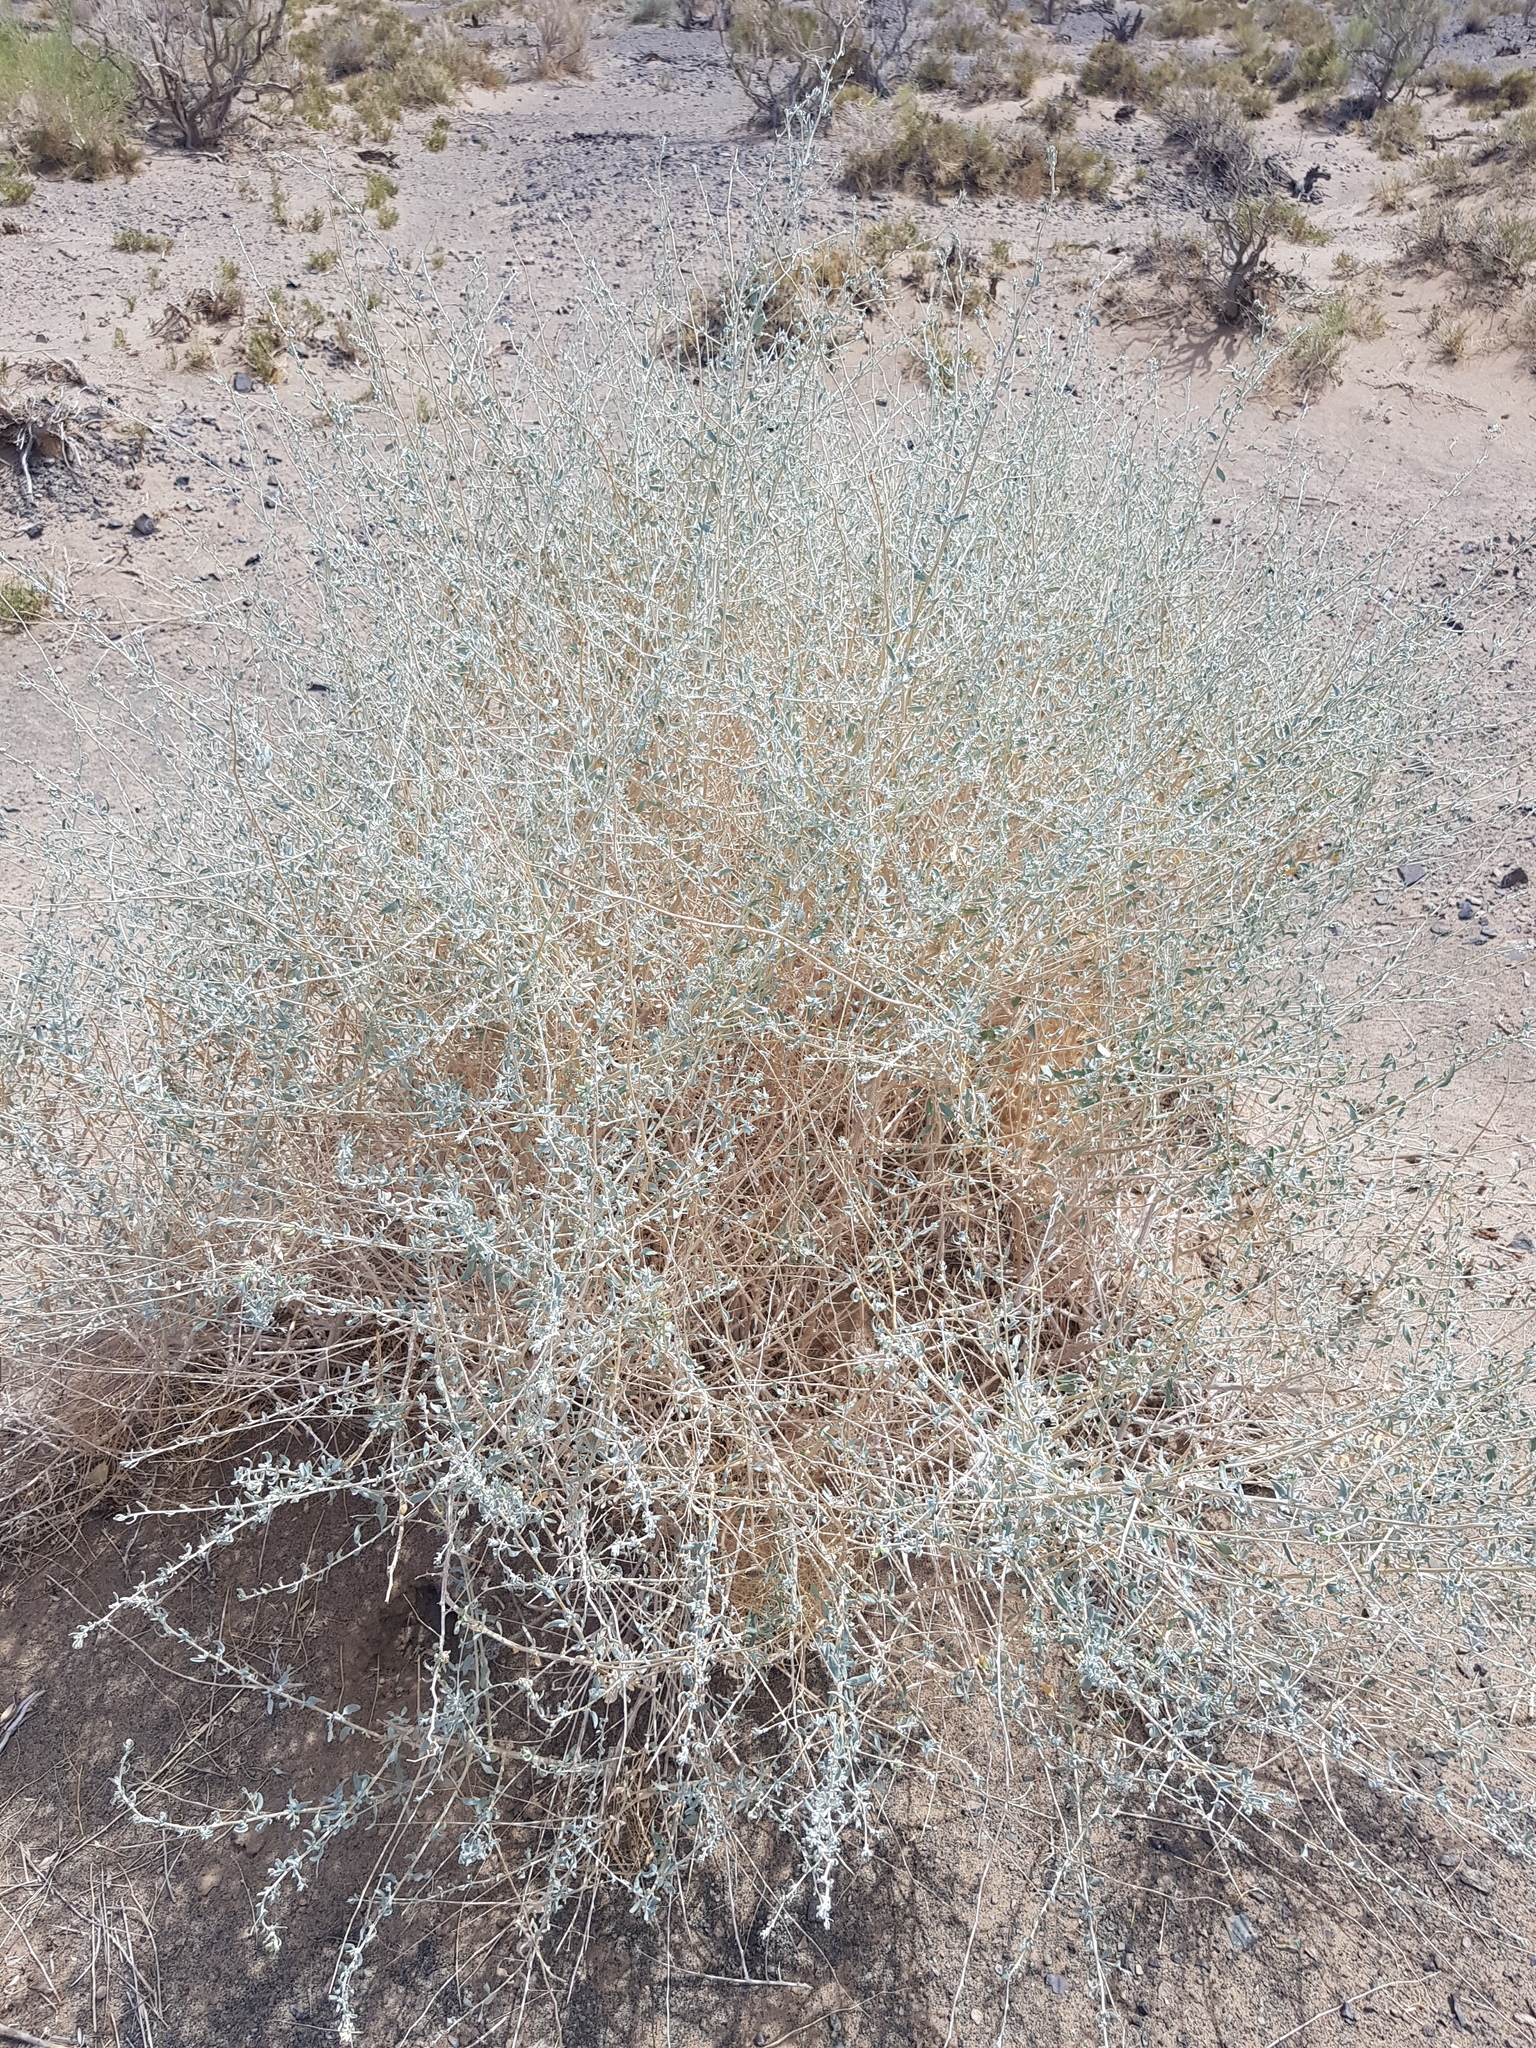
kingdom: Plantae
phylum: Tracheophyta
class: Magnoliopsida
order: Caryophyllales
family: Amaranthaceae
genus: Krascheninnikovia
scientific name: Krascheninnikovia ceratoides
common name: Pamirian winterfat
